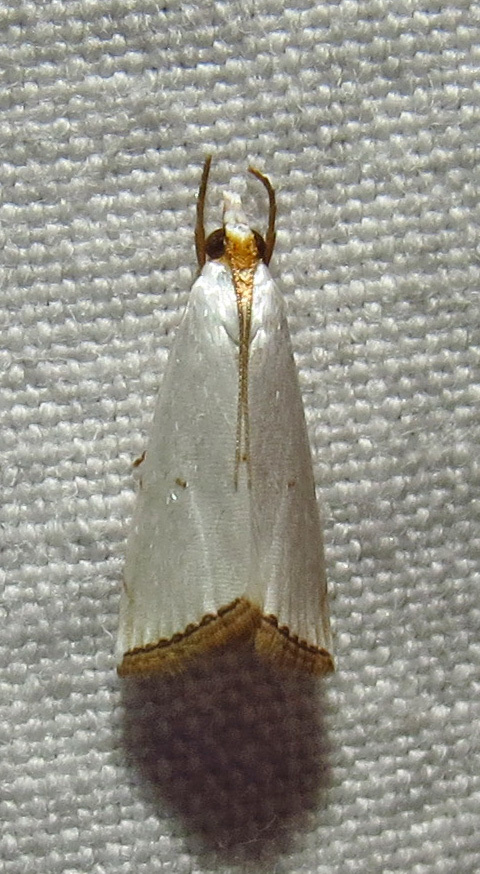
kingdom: Animalia
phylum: Arthropoda
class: Insecta
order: Lepidoptera
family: Crambidae
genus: Argyria
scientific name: Argyria pusillalis
